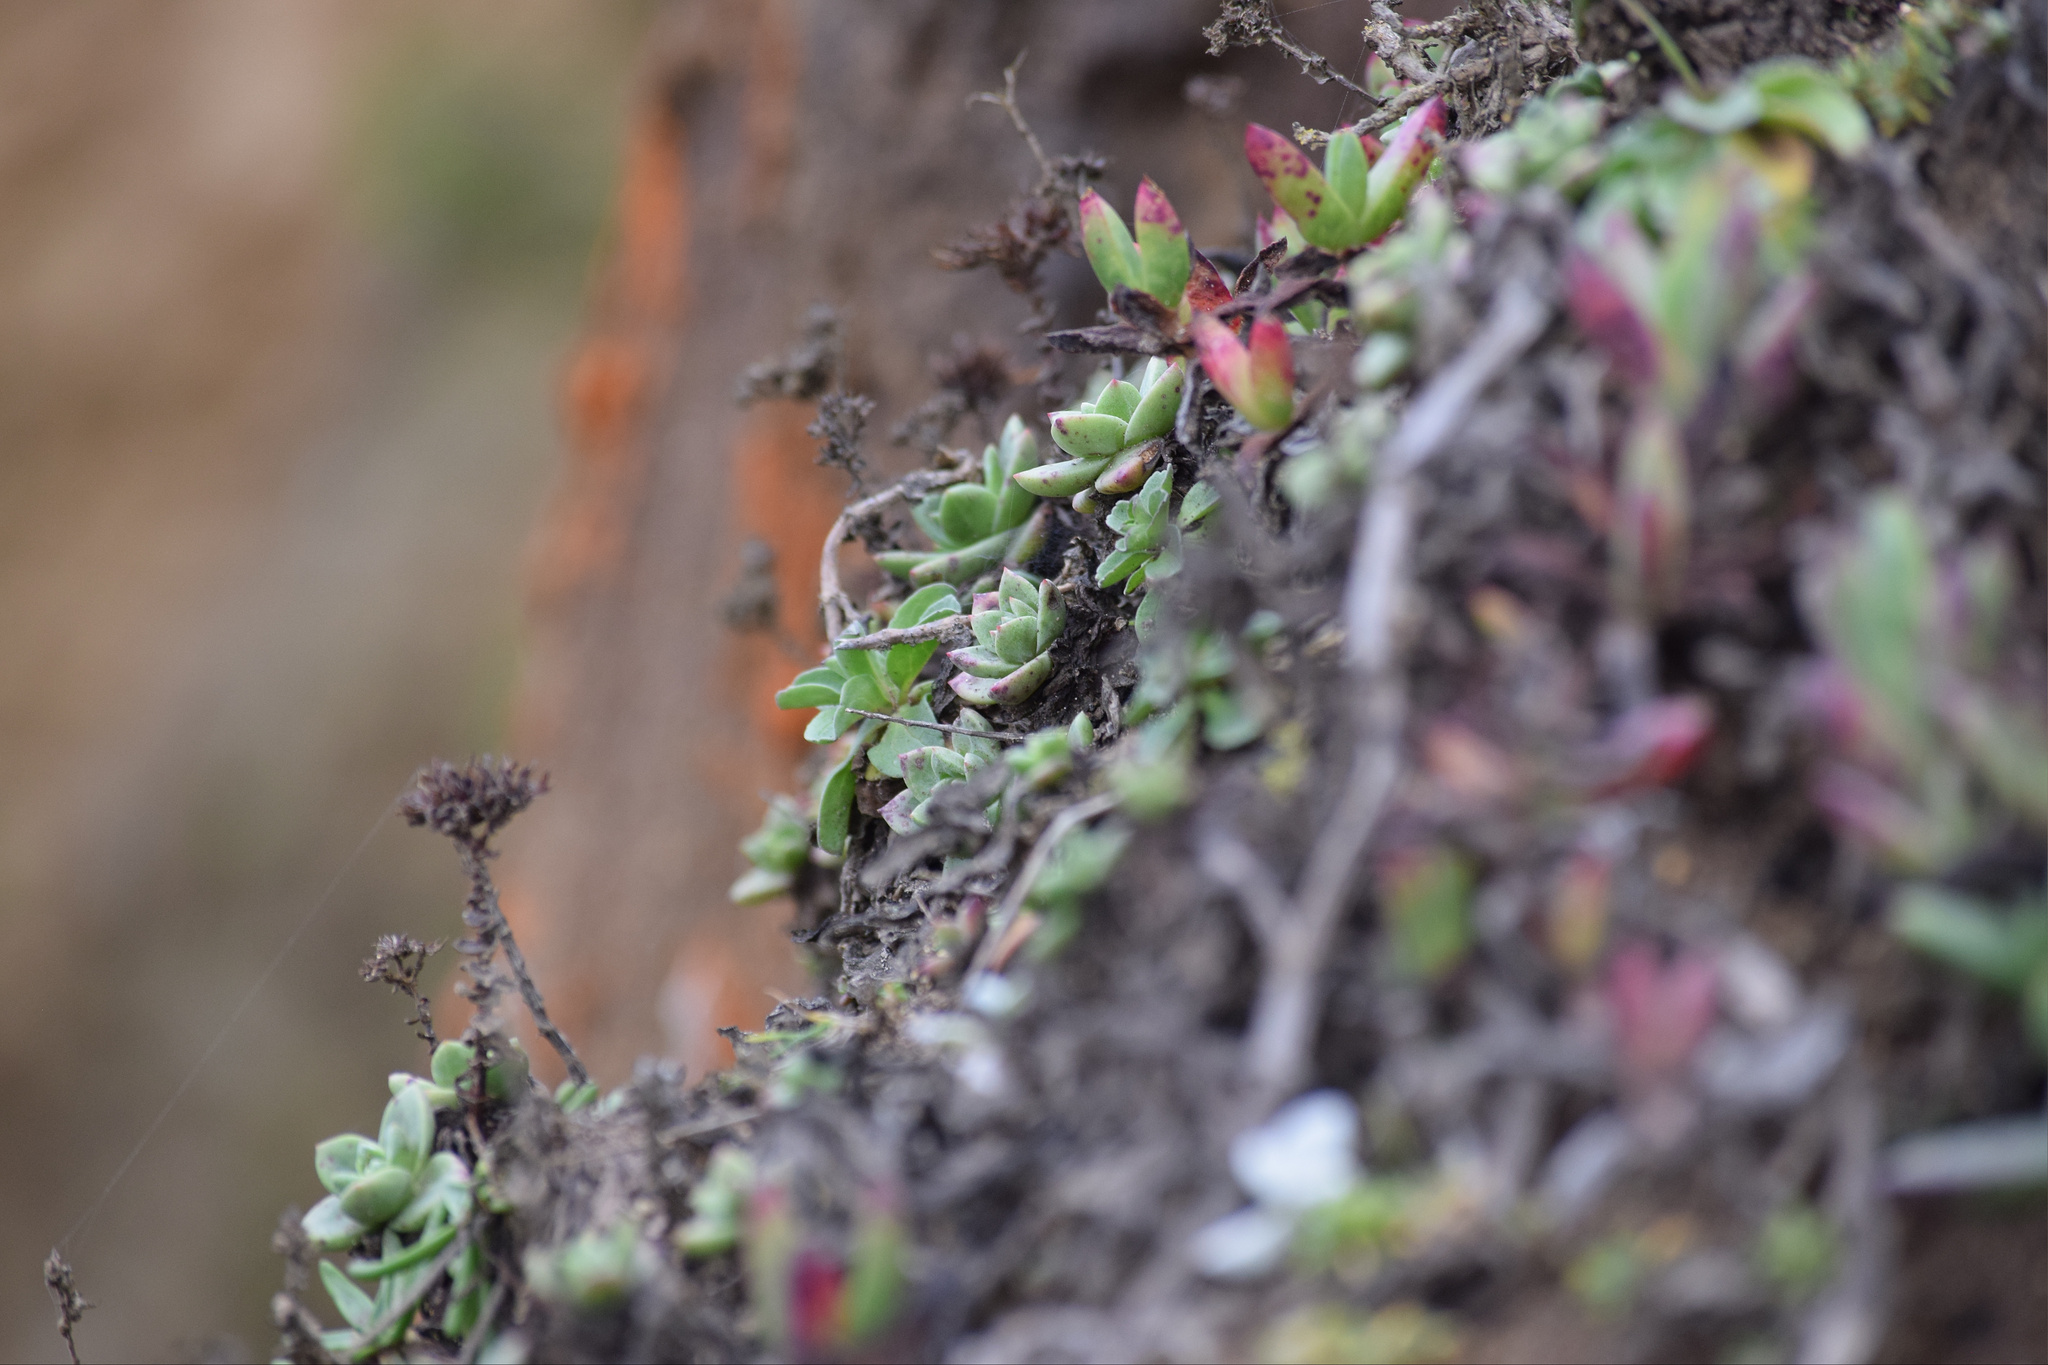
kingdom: Plantae
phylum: Tracheophyta
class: Magnoliopsida
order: Saxifragales
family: Crassulaceae
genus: Dudleya
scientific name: Dudleya farinosa
